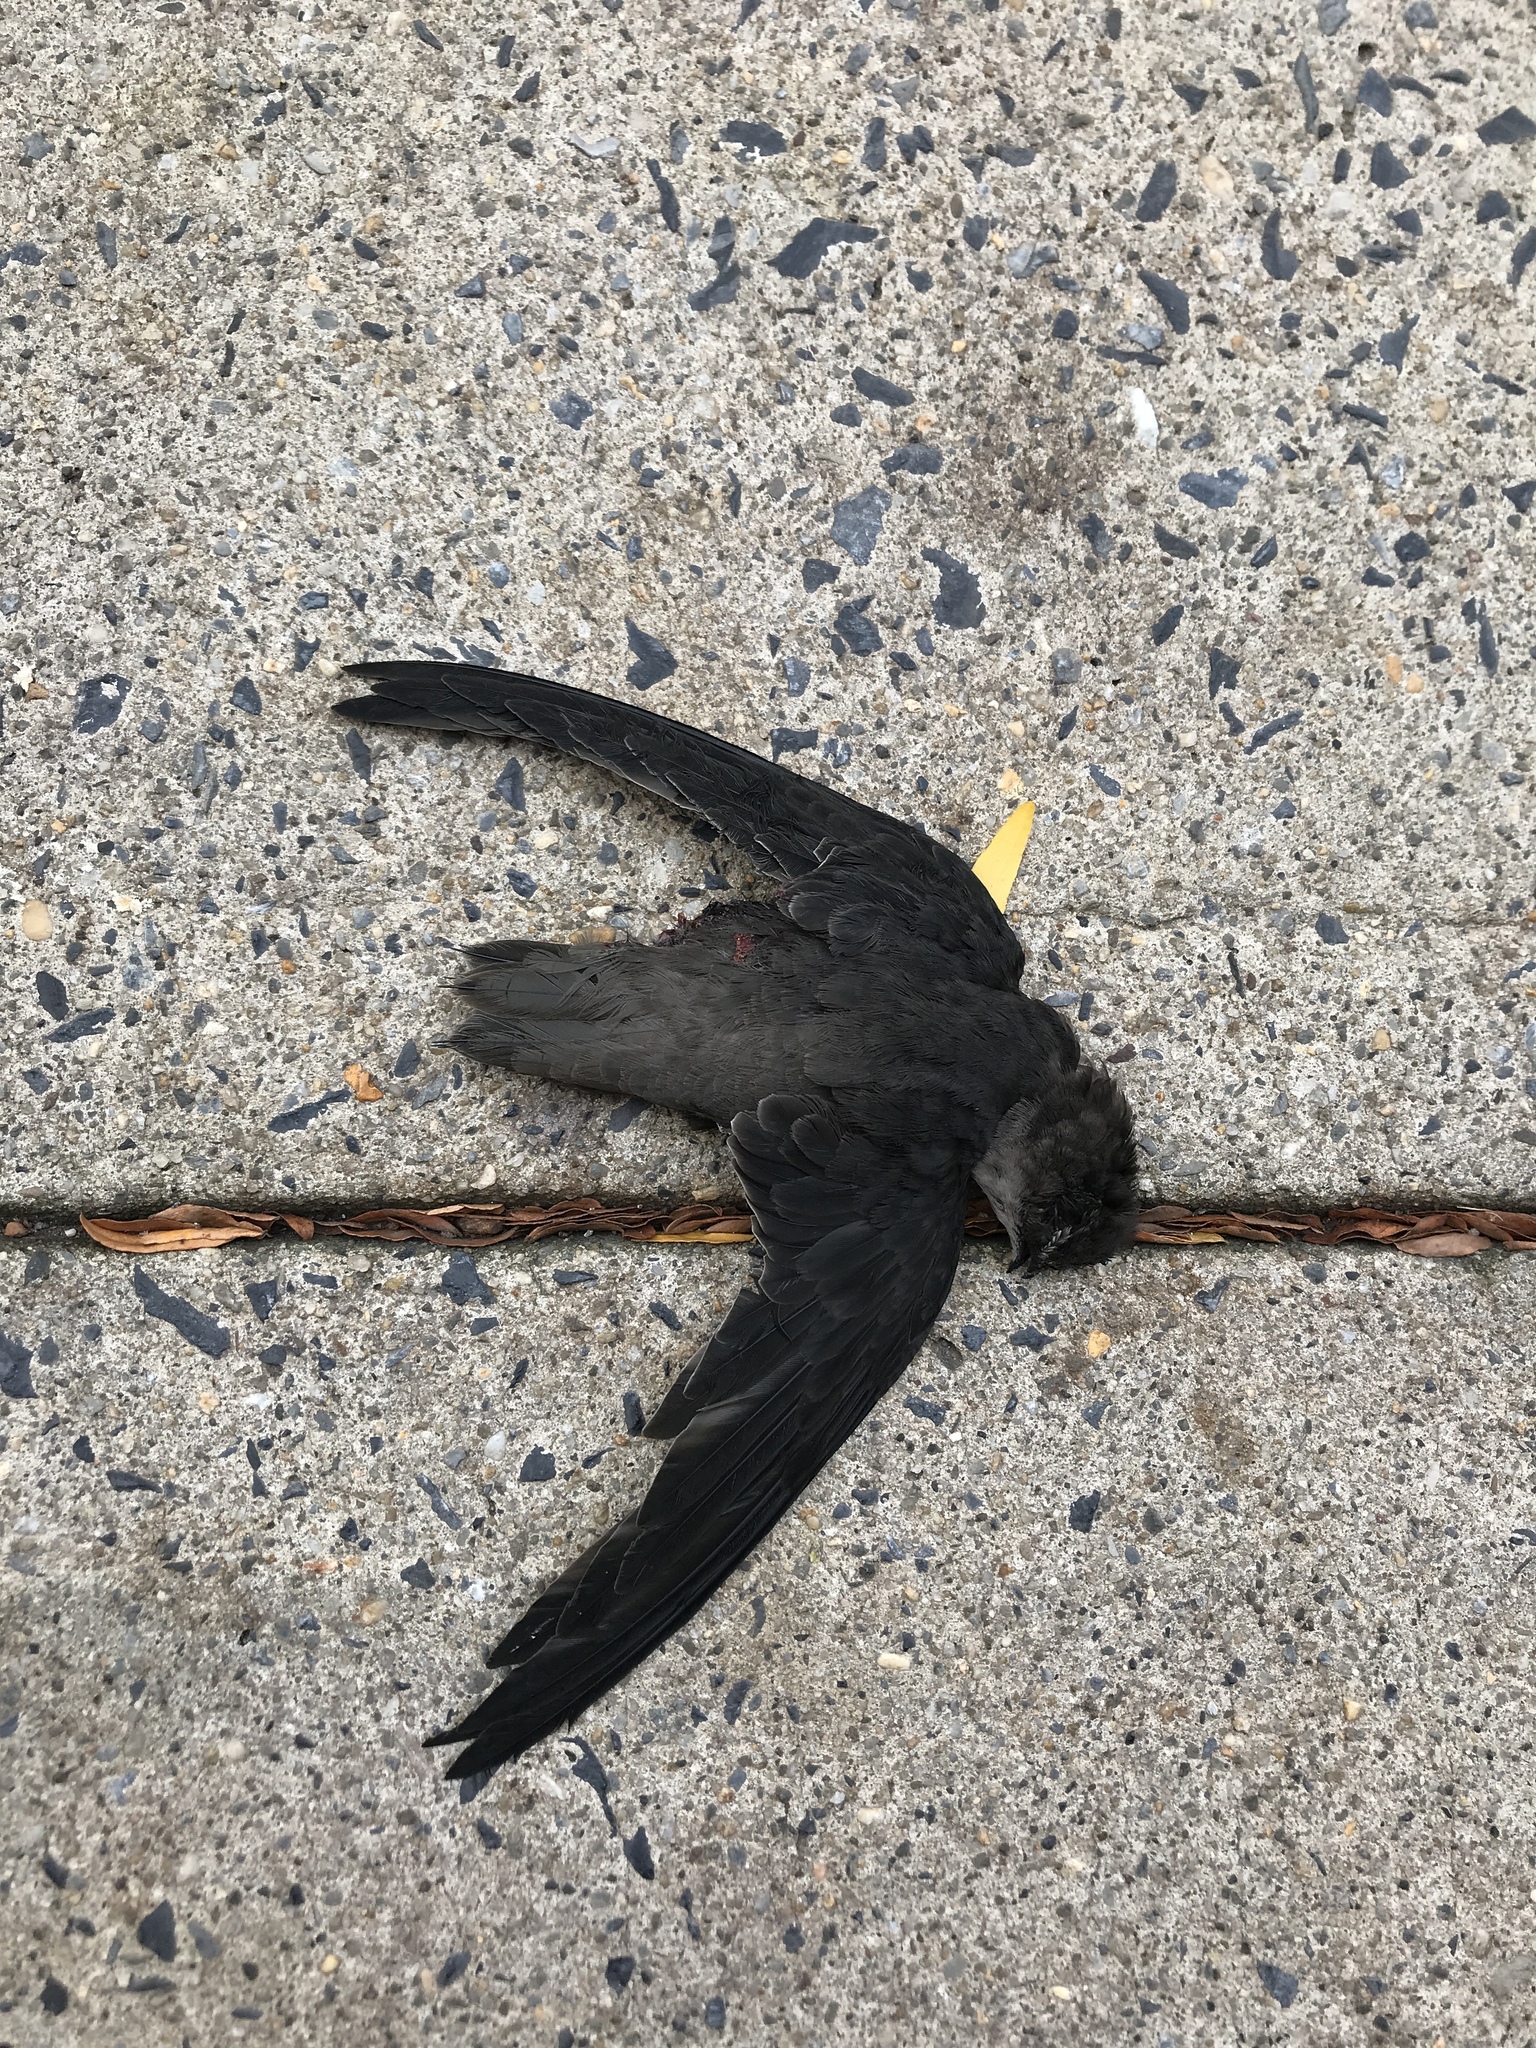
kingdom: Animalia
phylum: Chordata
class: Aves
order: Apodiformes
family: Apodidae
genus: Chaetura
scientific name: Chaetura pelagica
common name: Chimney swift
